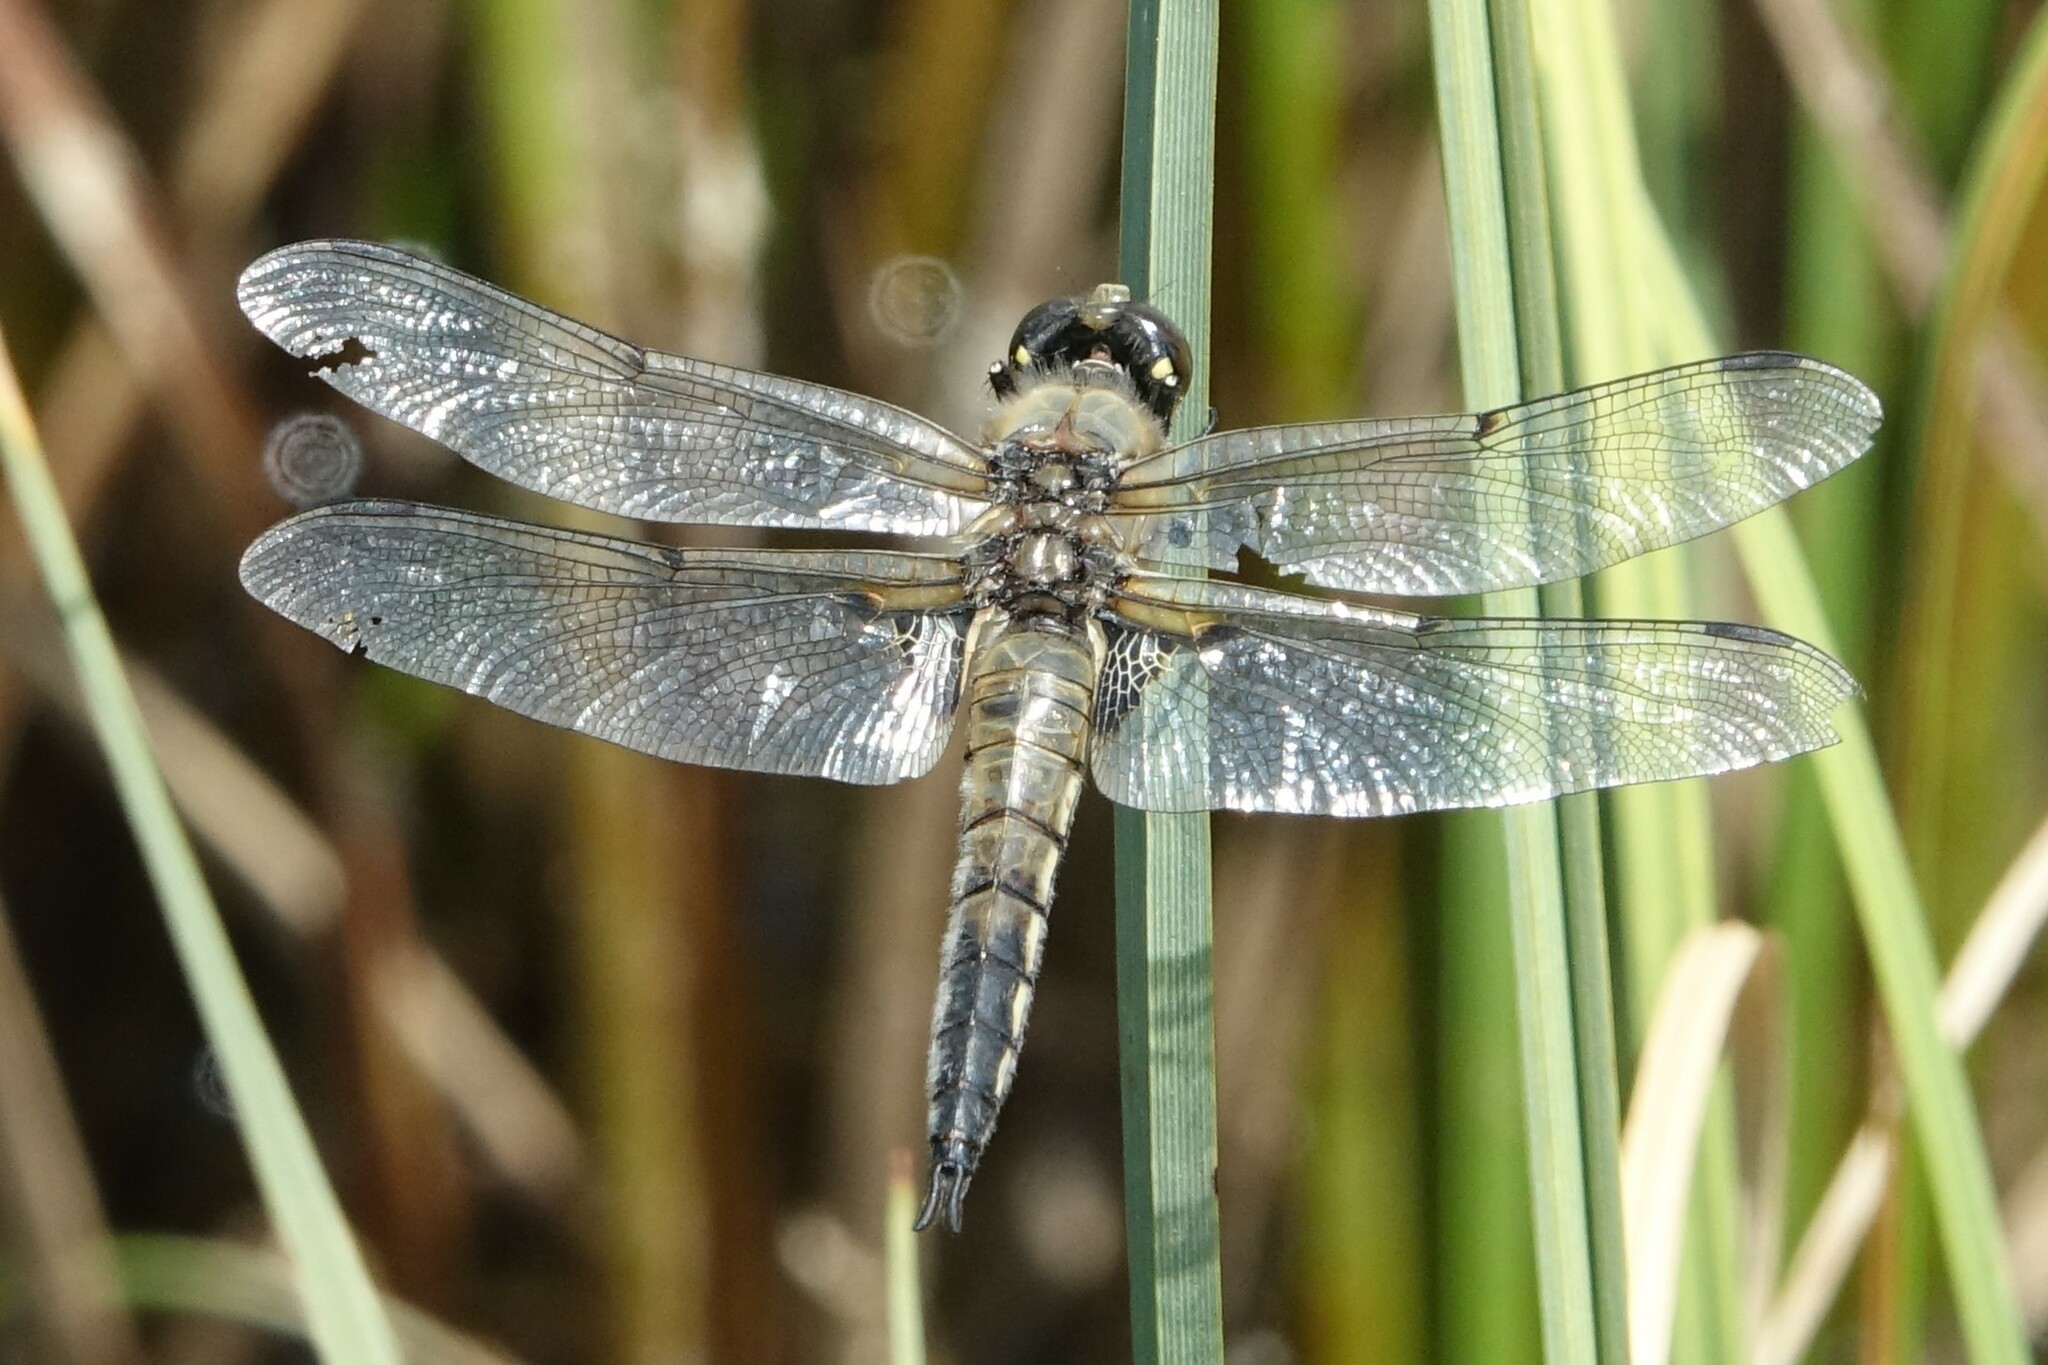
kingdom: Animalia
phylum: Arthropoda
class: Insecta
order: Odonata
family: Libellulidae
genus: Libellula
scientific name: Libellula quadrimaculata
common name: Four-spotted chaser
